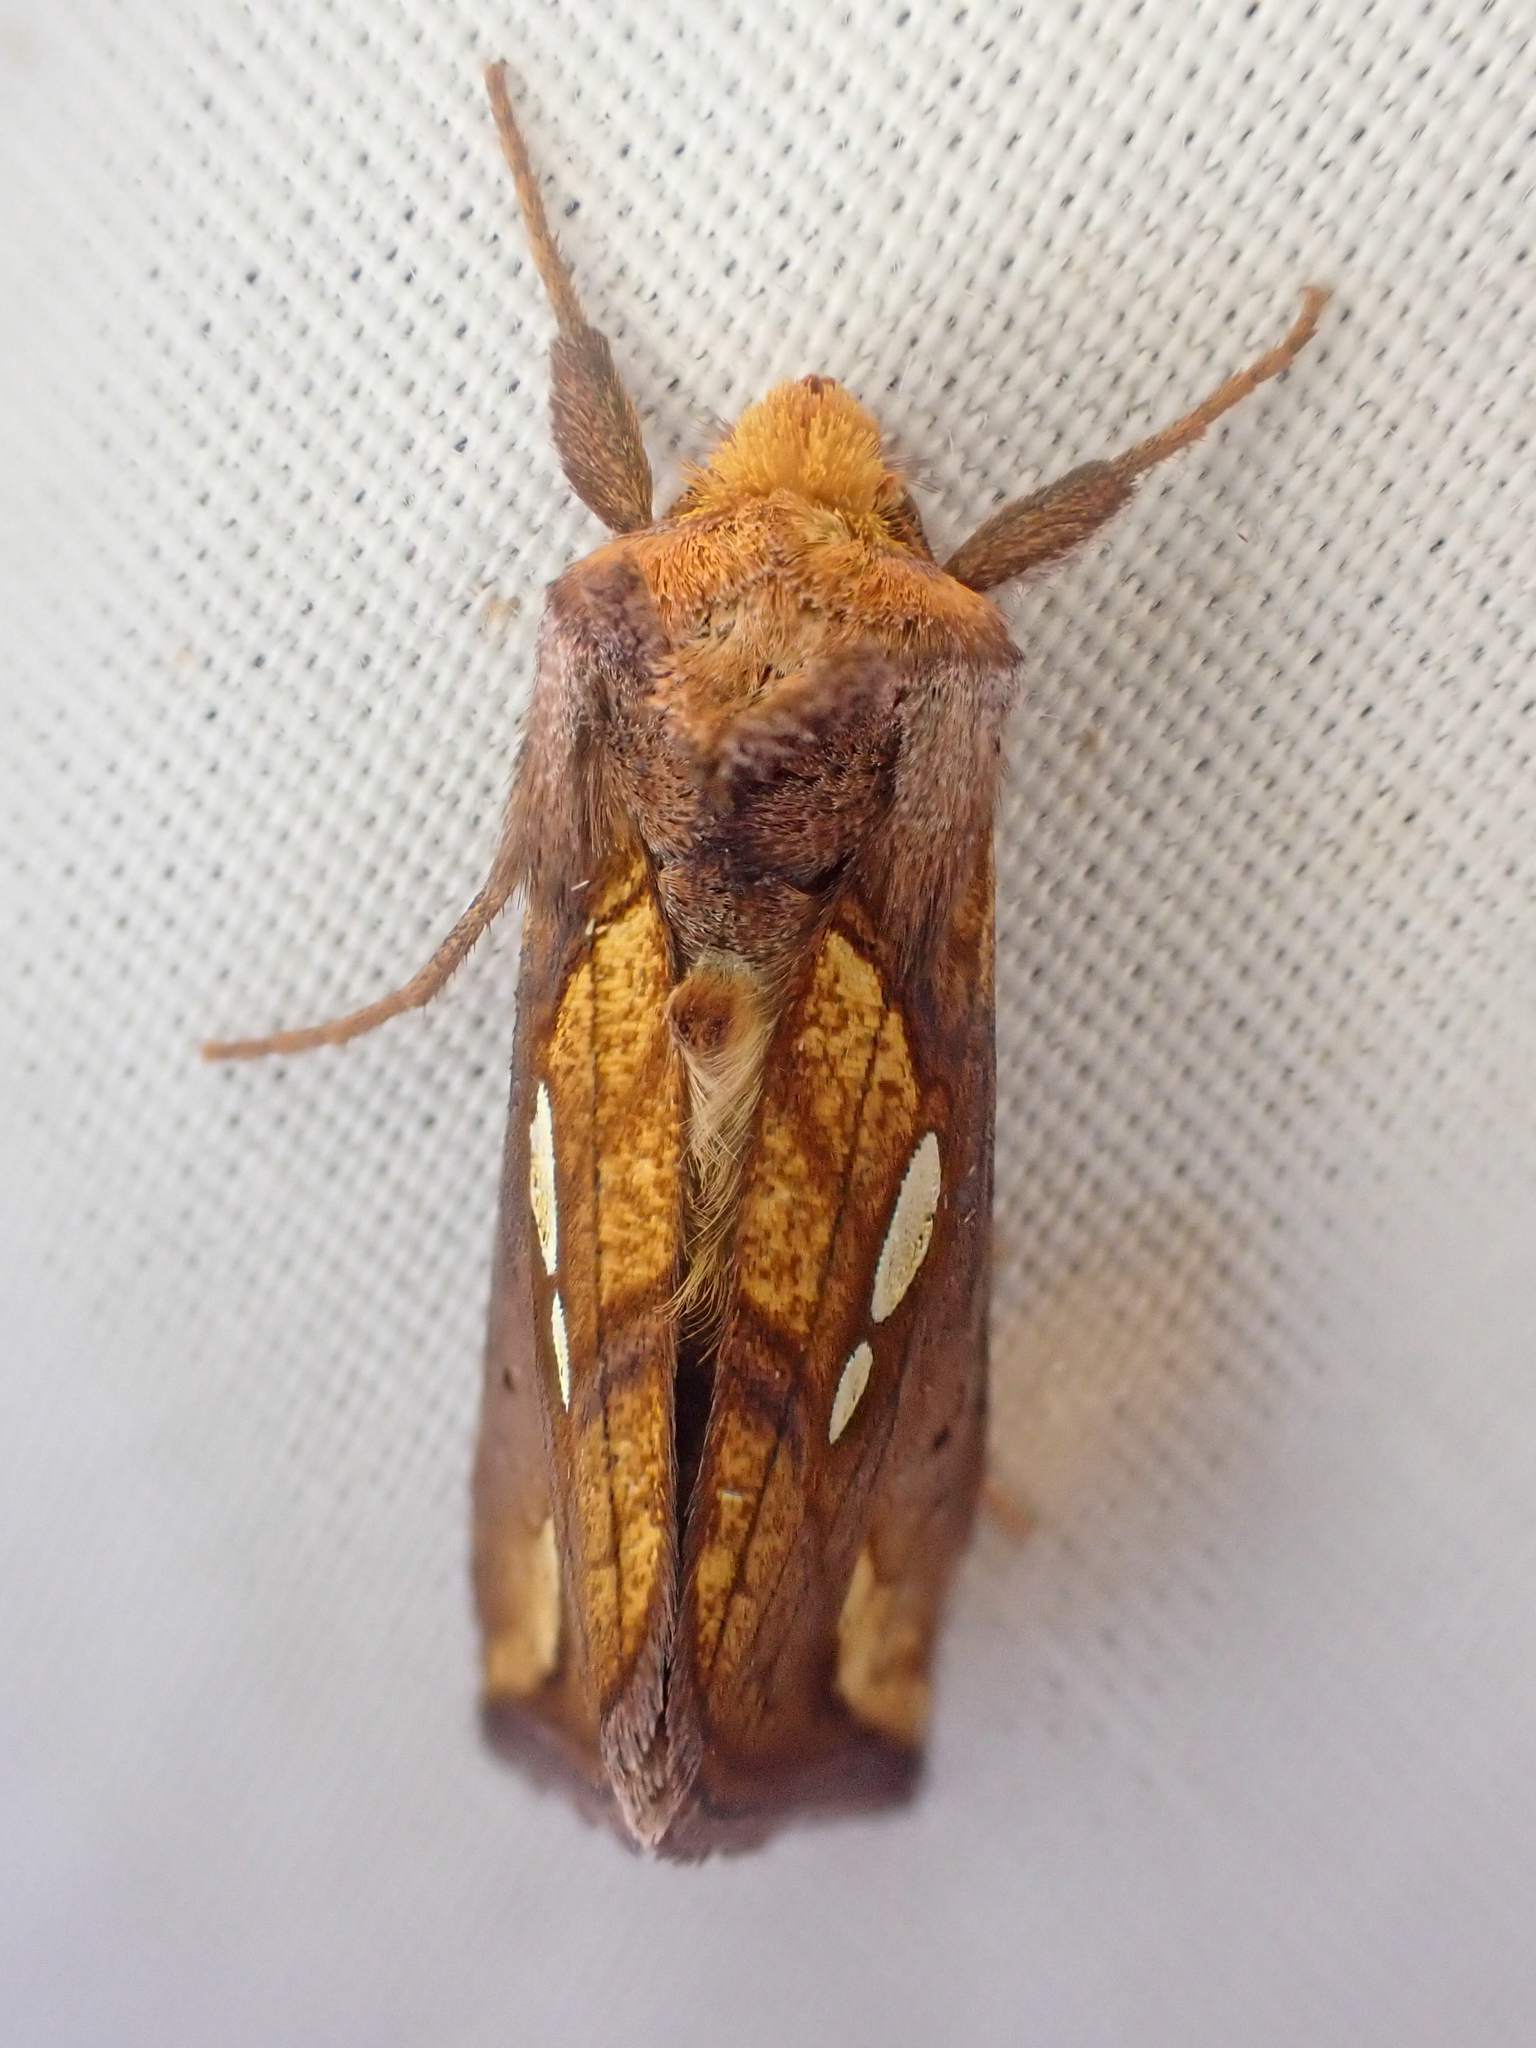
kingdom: Animalia
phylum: Arthropoda
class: Insecta
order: Lepidoptera
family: Noctuidae
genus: Plusia
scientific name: Plusia nichollae
